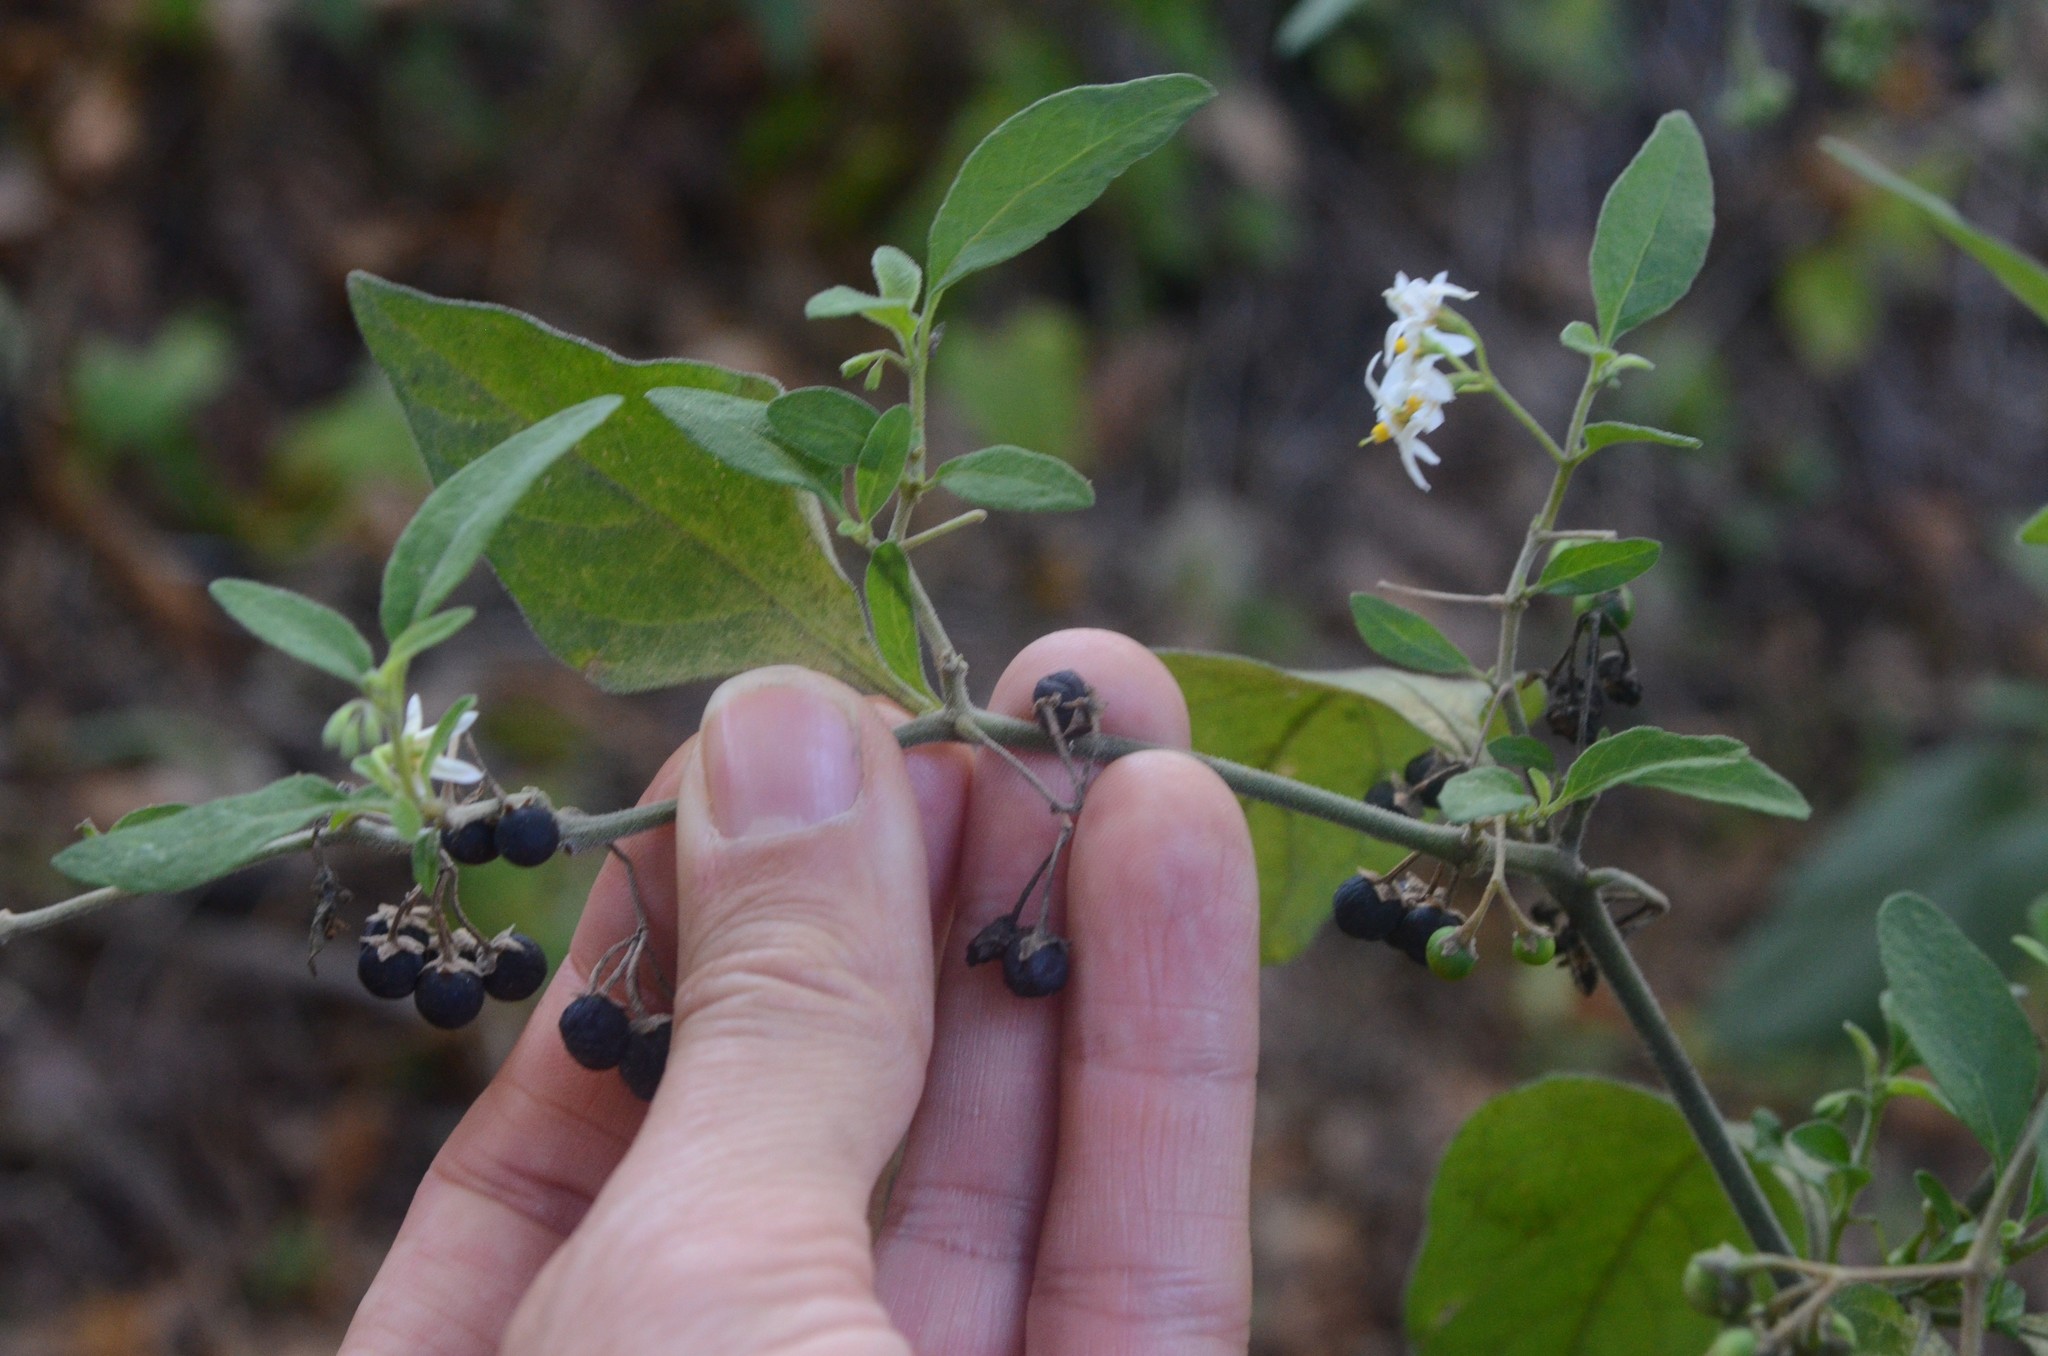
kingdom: Plantae
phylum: Tracheophyta
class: Magnoliopsida
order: Solanales
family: Solanaceae
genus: Solanum
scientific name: Solanum chenopodioides
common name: Tall nightshade
